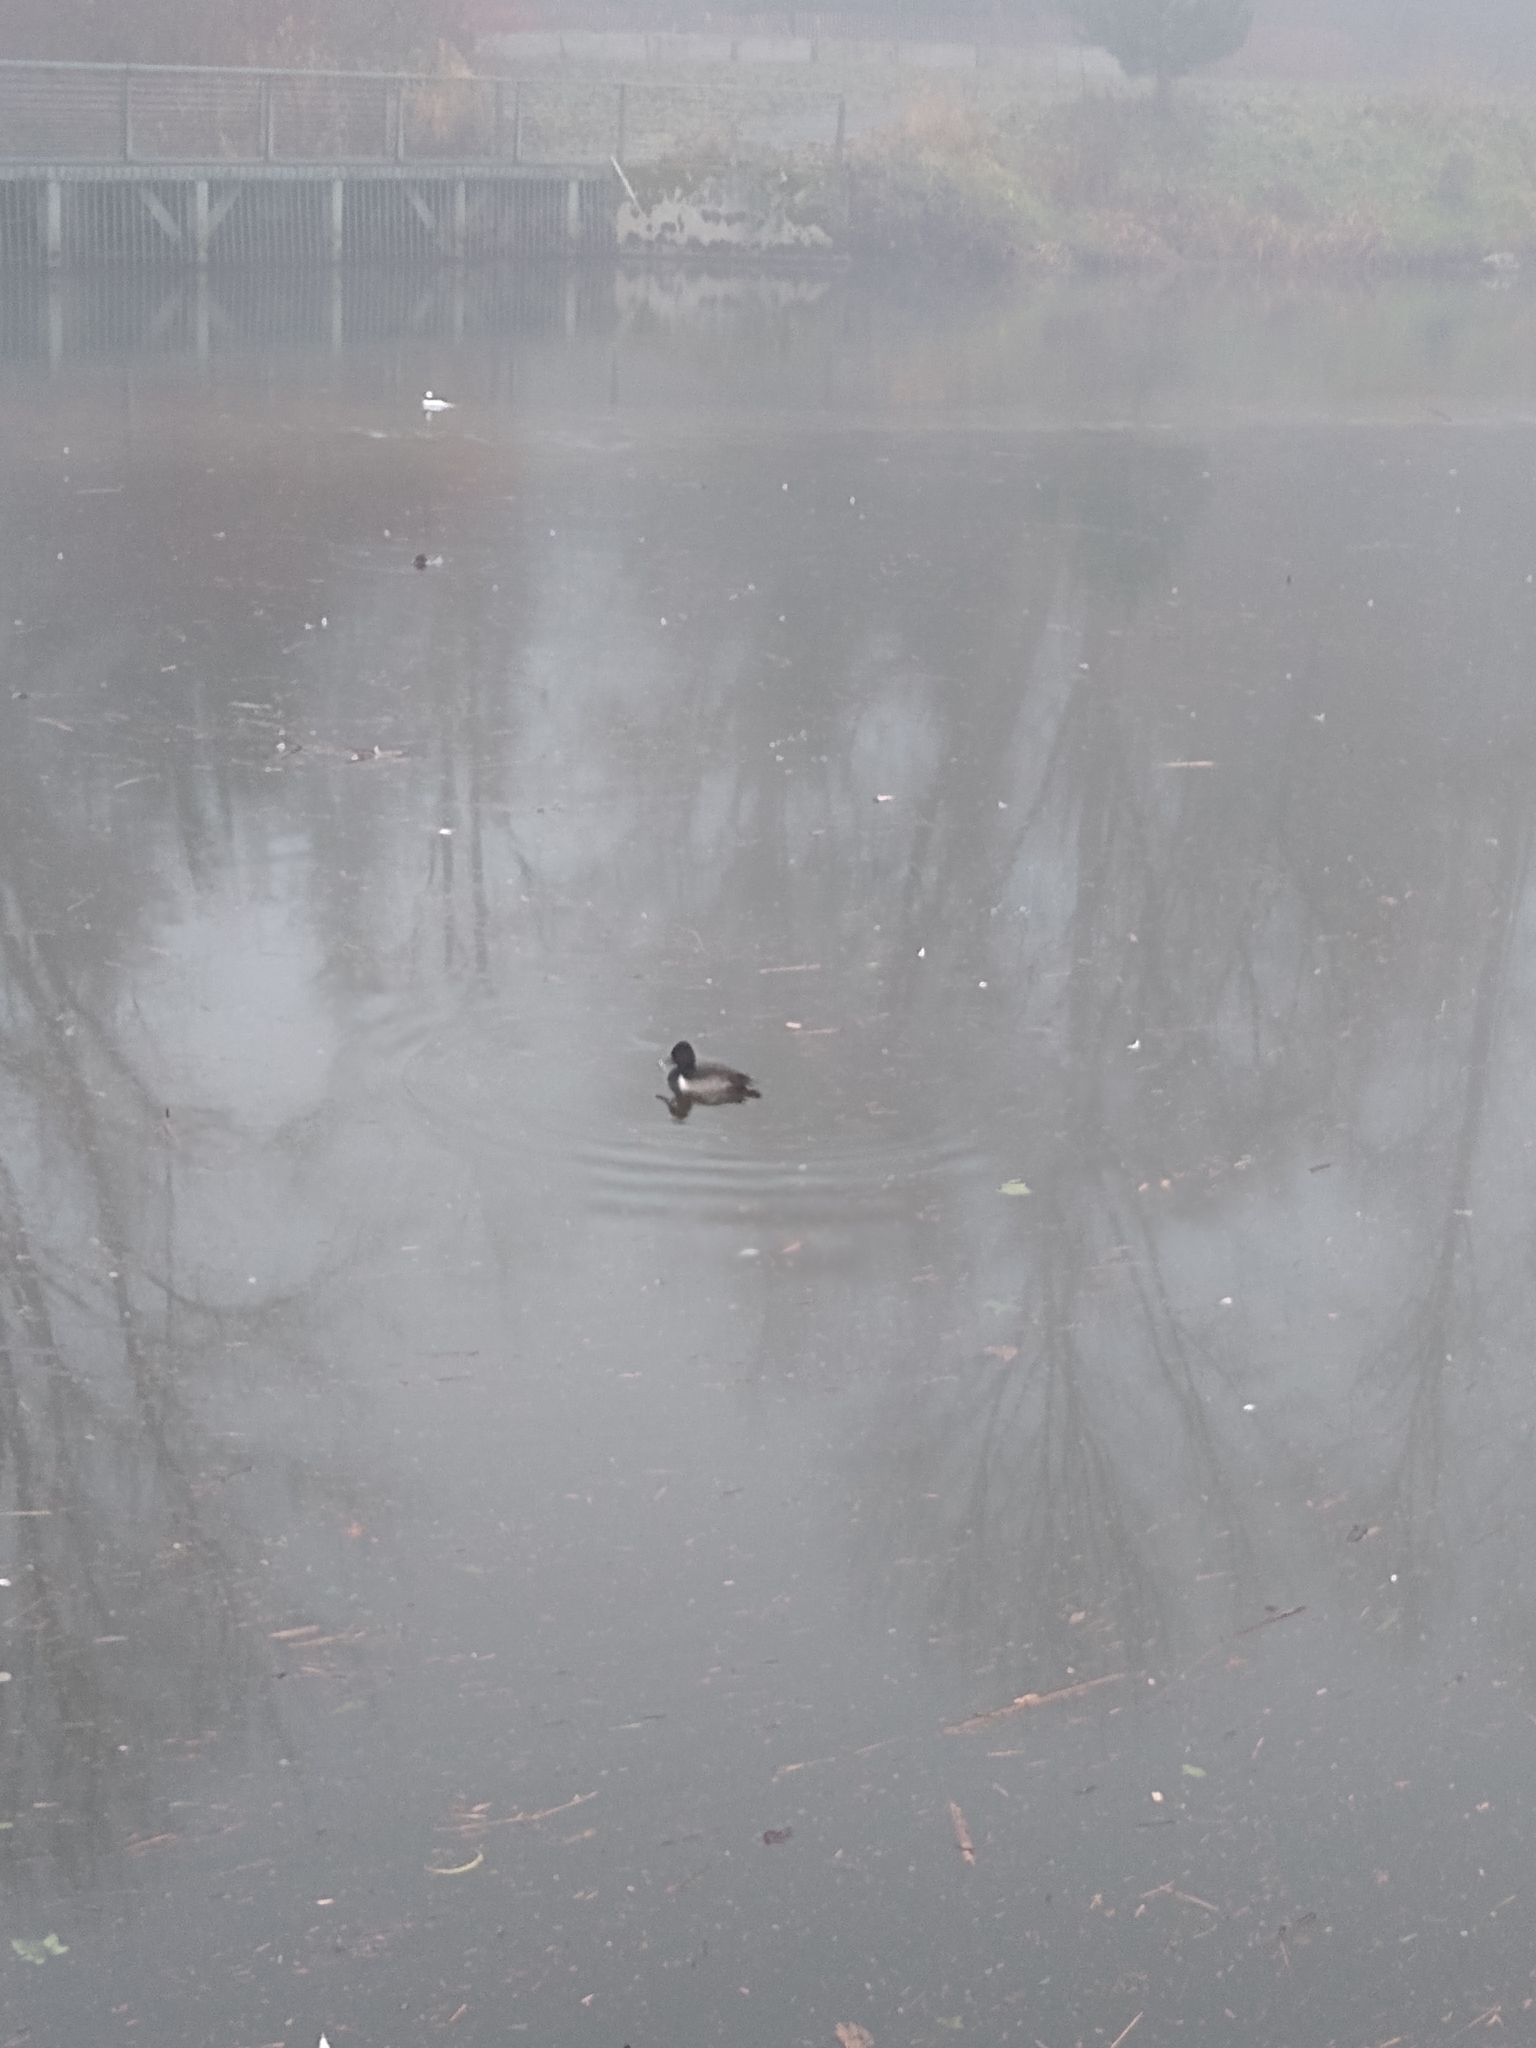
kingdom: Animalia
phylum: Chordata
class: Aves
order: Anseriformes
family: Anatidae
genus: Aythya
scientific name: Aythya collaris
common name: Ring-necked duck
